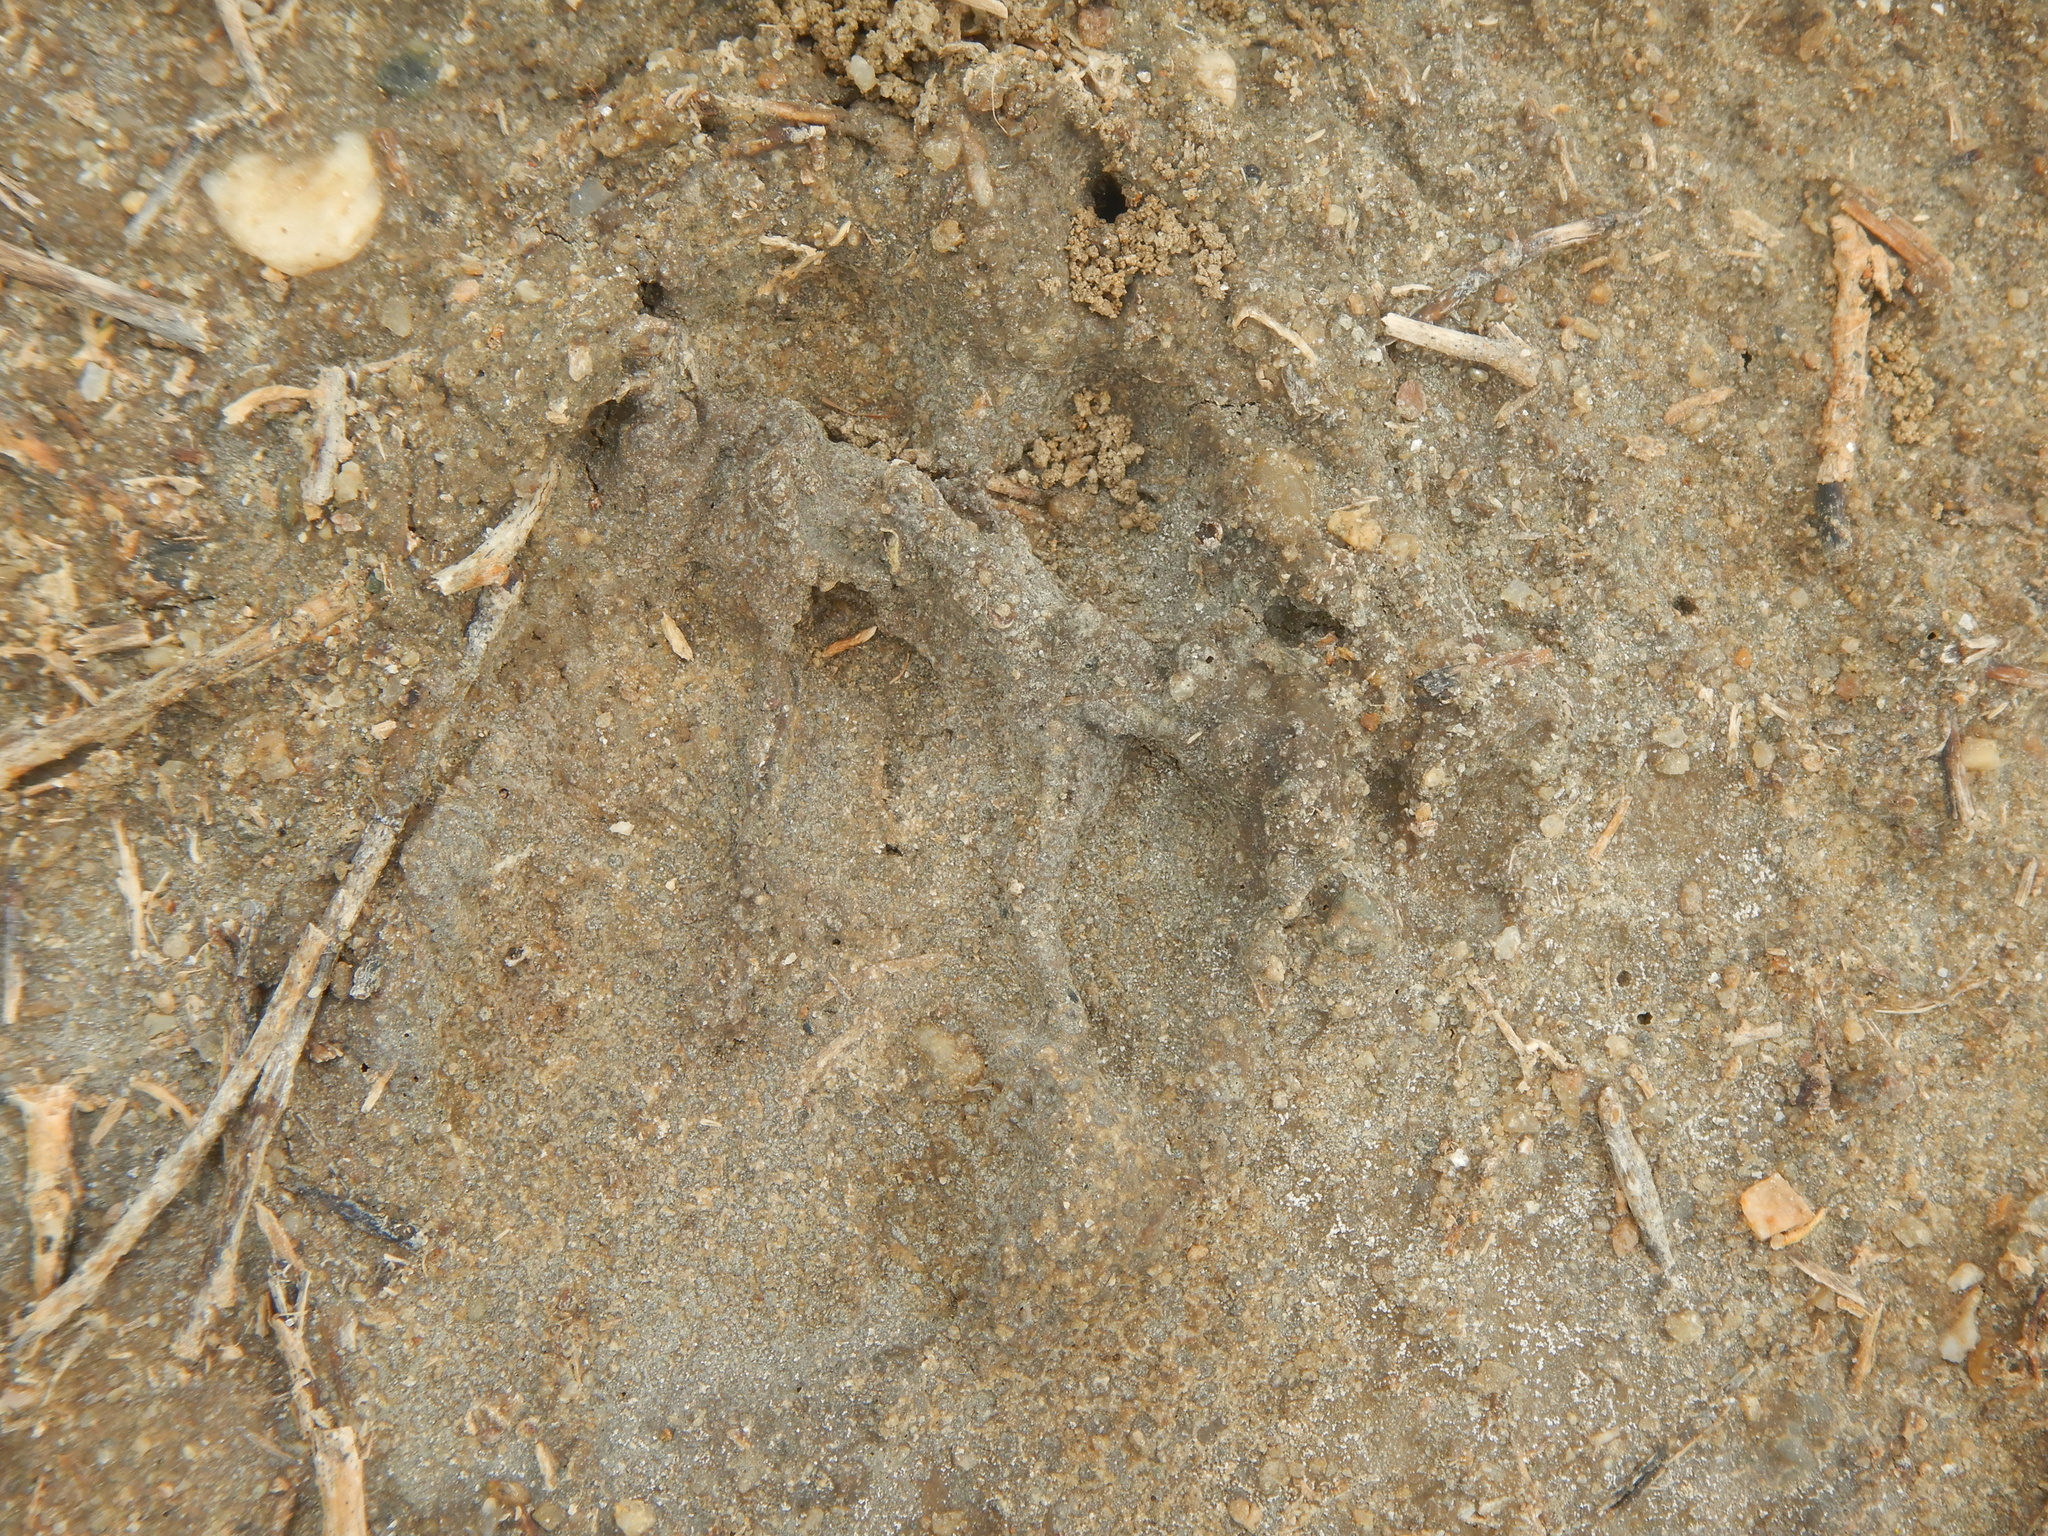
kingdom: Animalia
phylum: Chordata
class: Mammalia
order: Carnivora
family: Canidae
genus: Canis
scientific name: Canis aureus
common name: Golden jackal
